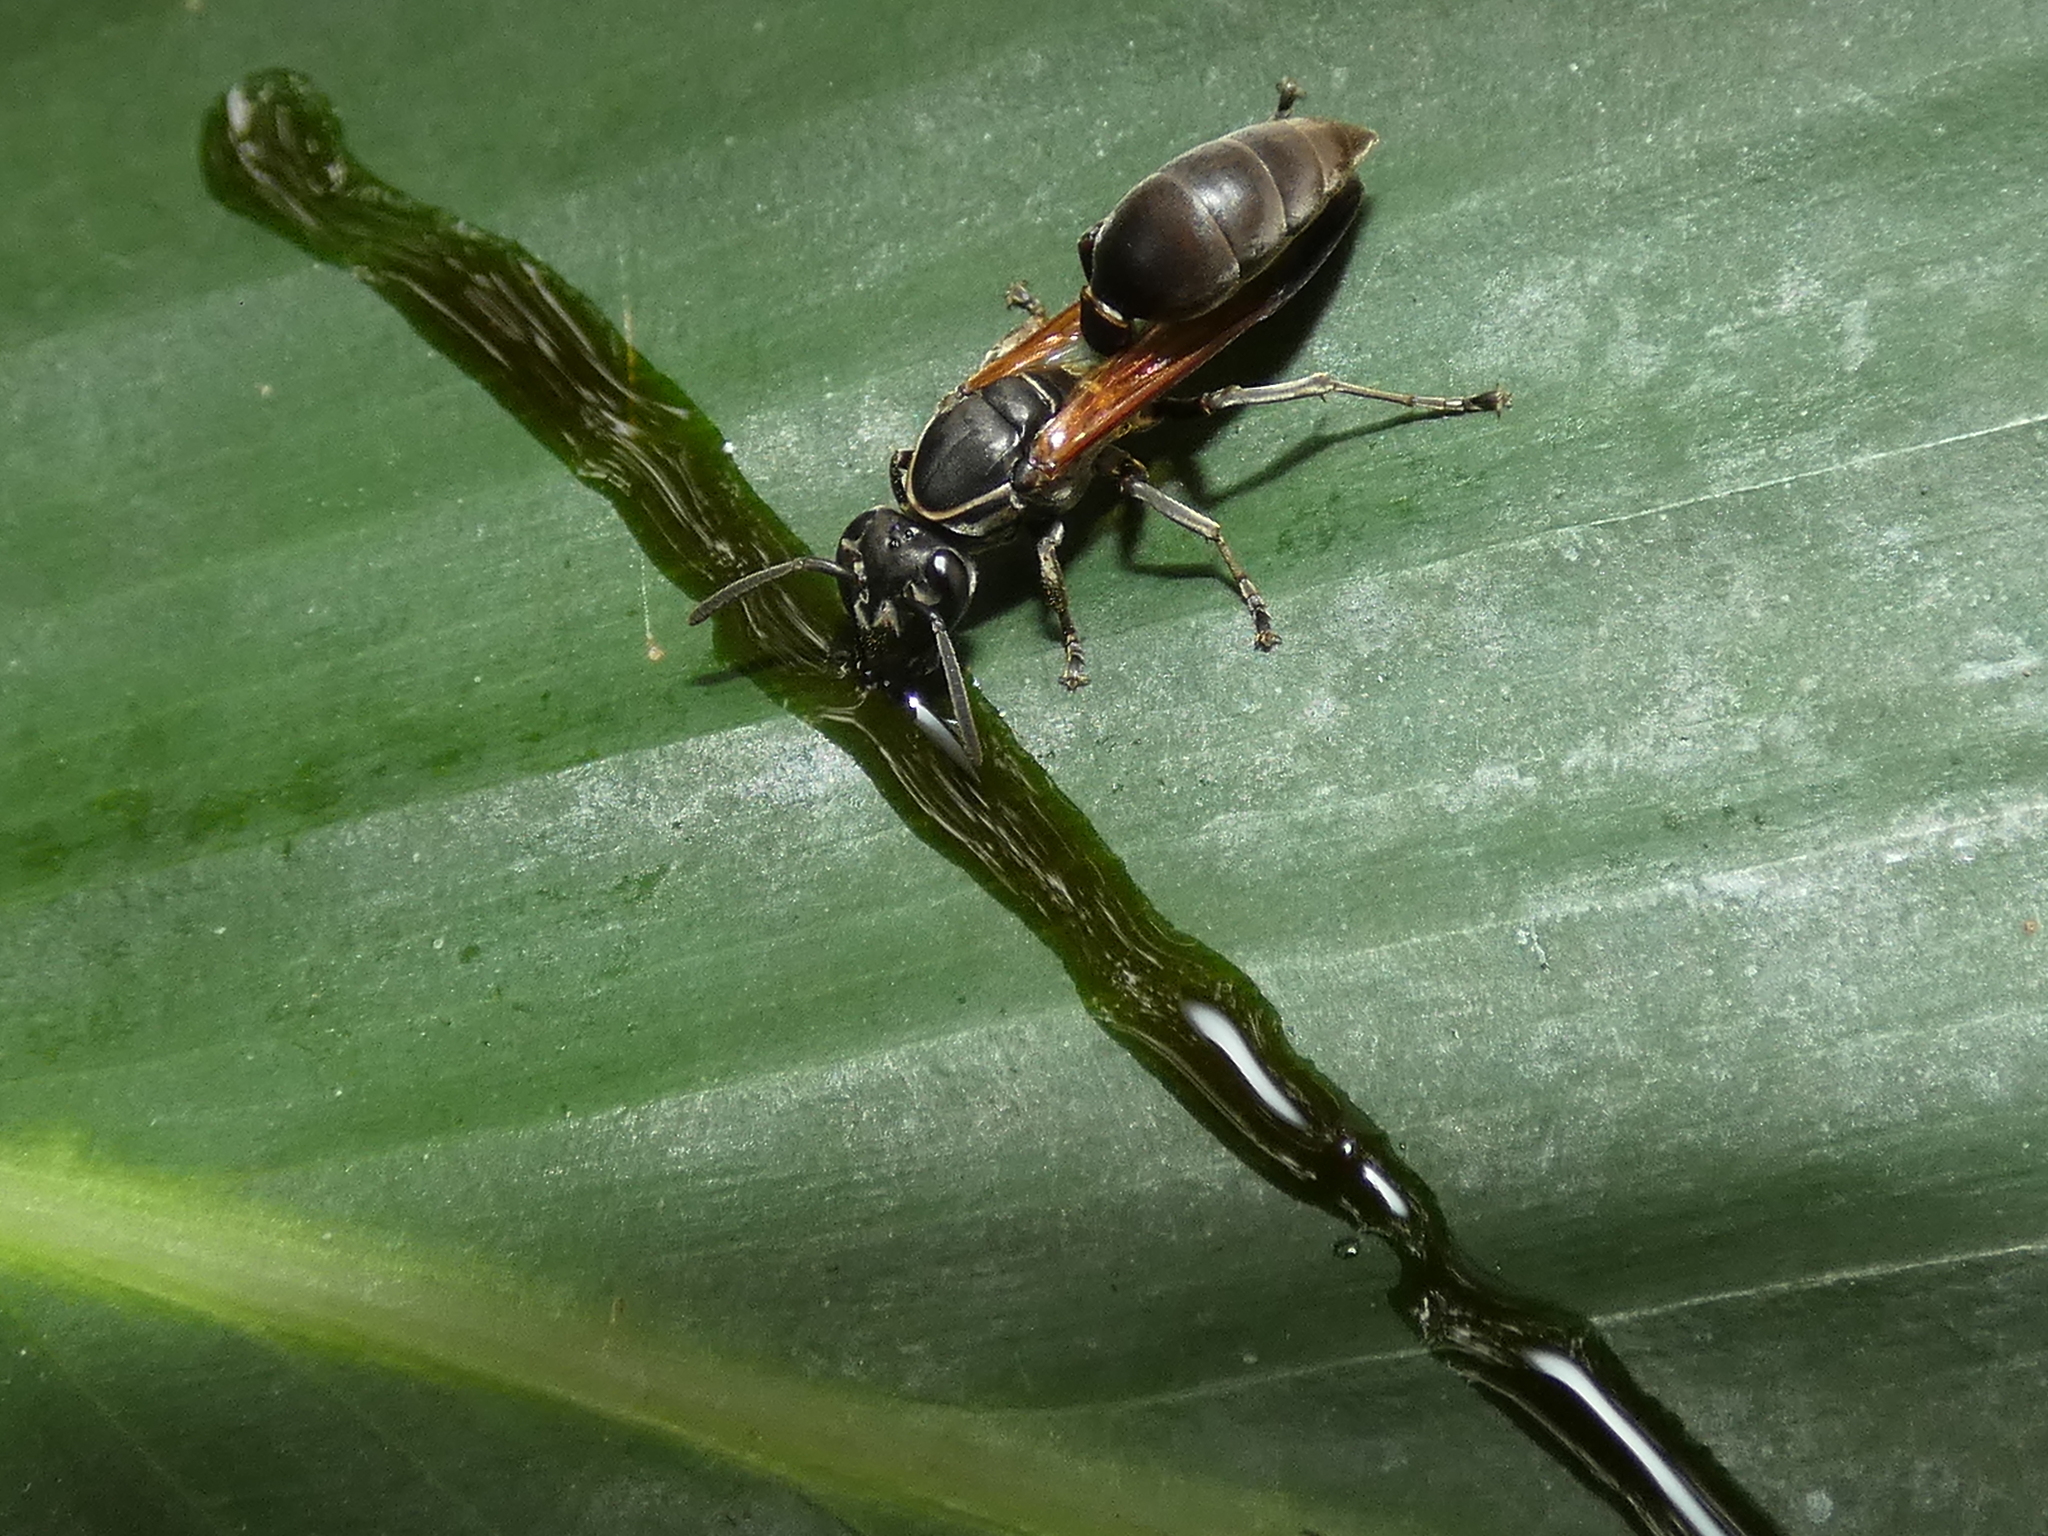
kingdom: Animalia
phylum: Arthropoda
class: Insecta
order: Hymenoptera
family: Eumenidae
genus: Polybia
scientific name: Polybia rejecta
